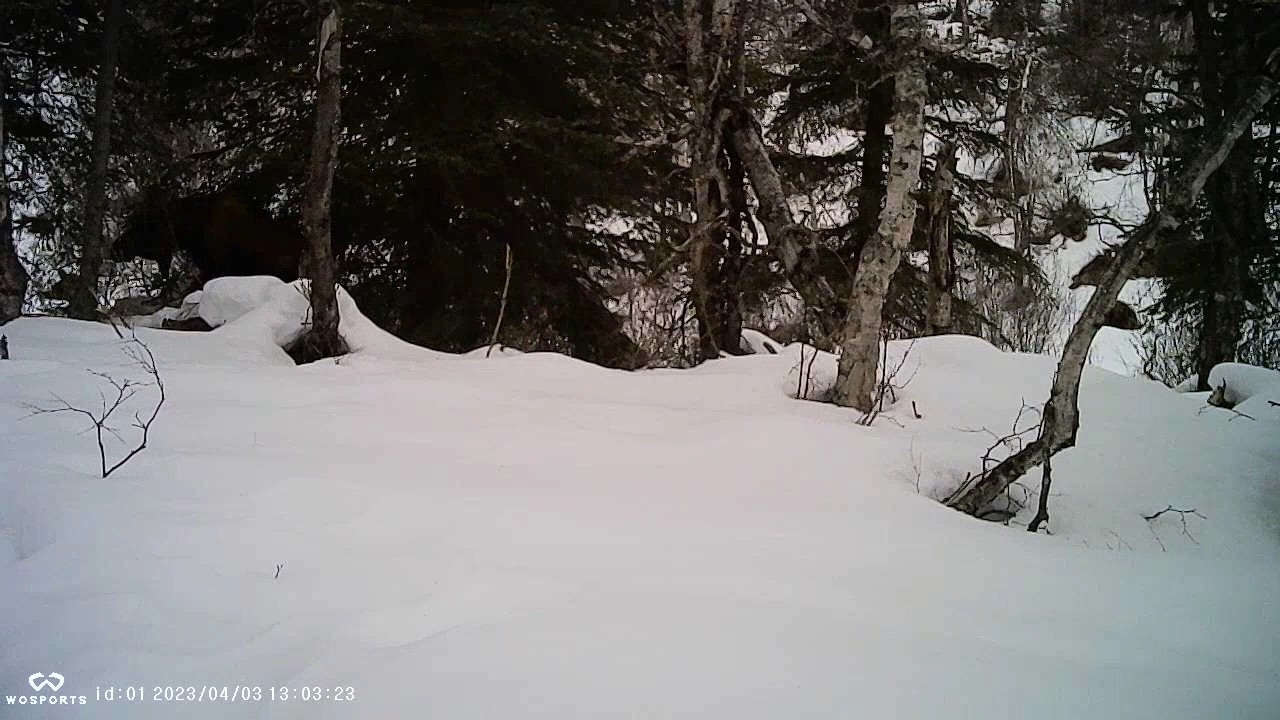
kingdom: Animalia
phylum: Chordata
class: Mammalia
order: Artiodactyla
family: Cervidae
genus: Alces
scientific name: Alces alces
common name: Moose
